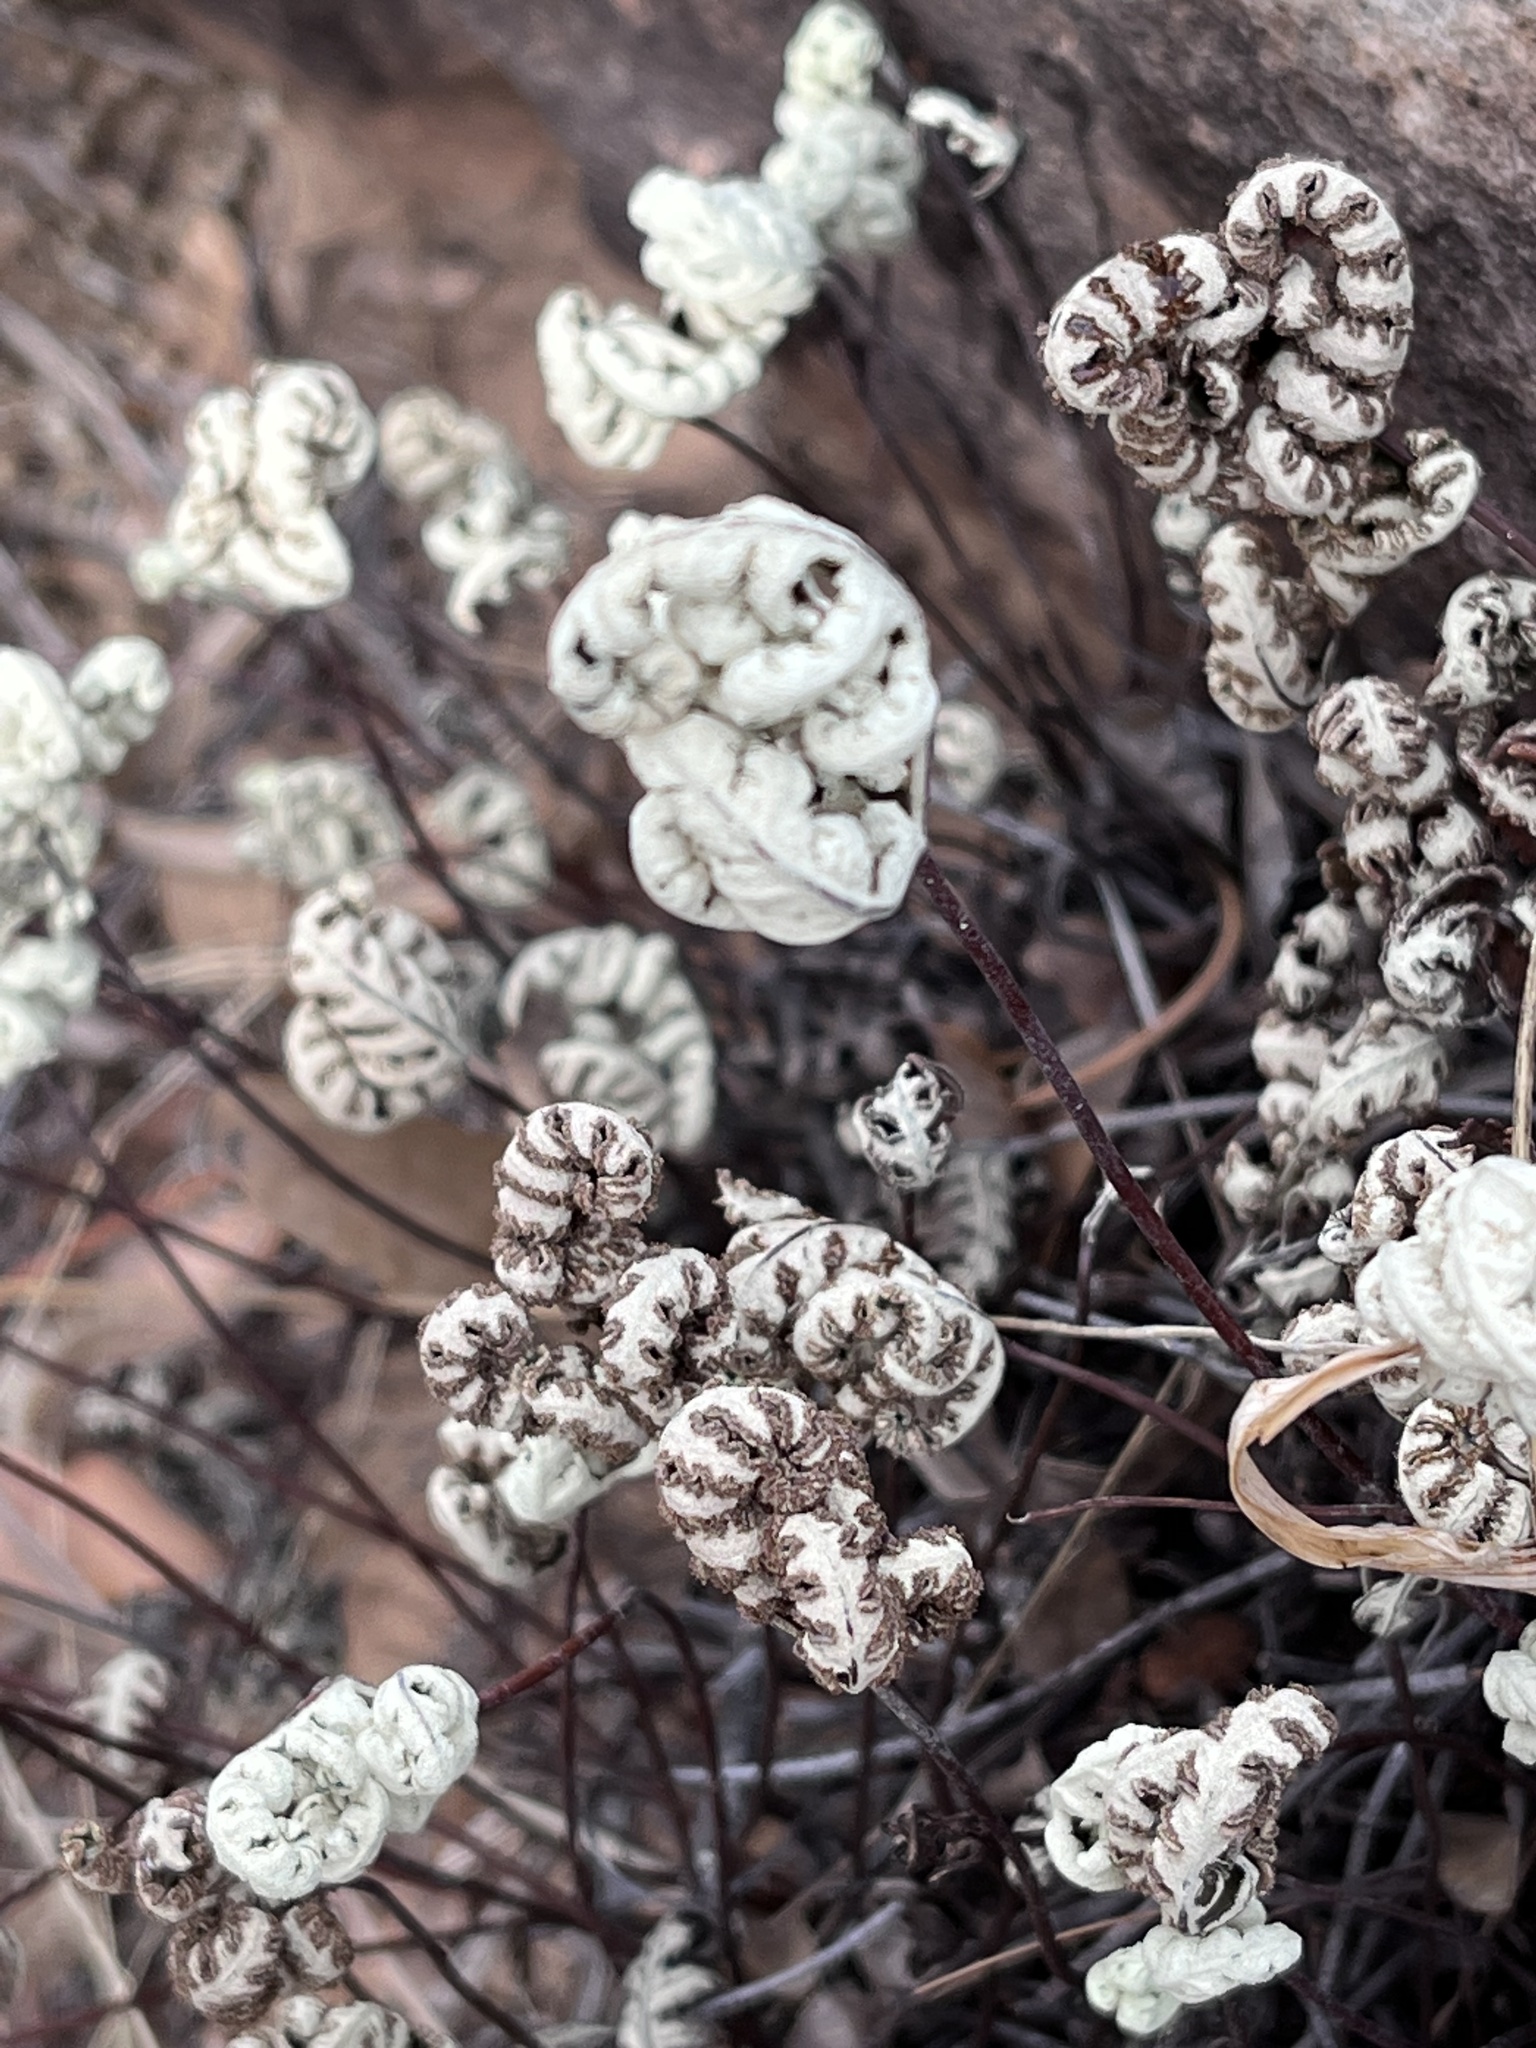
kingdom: Plantae
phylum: Tracheophyta
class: Polypodiopsida
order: Polypodiales
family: Pteridaceae
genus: Notholaena
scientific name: Notholaena standleyi
